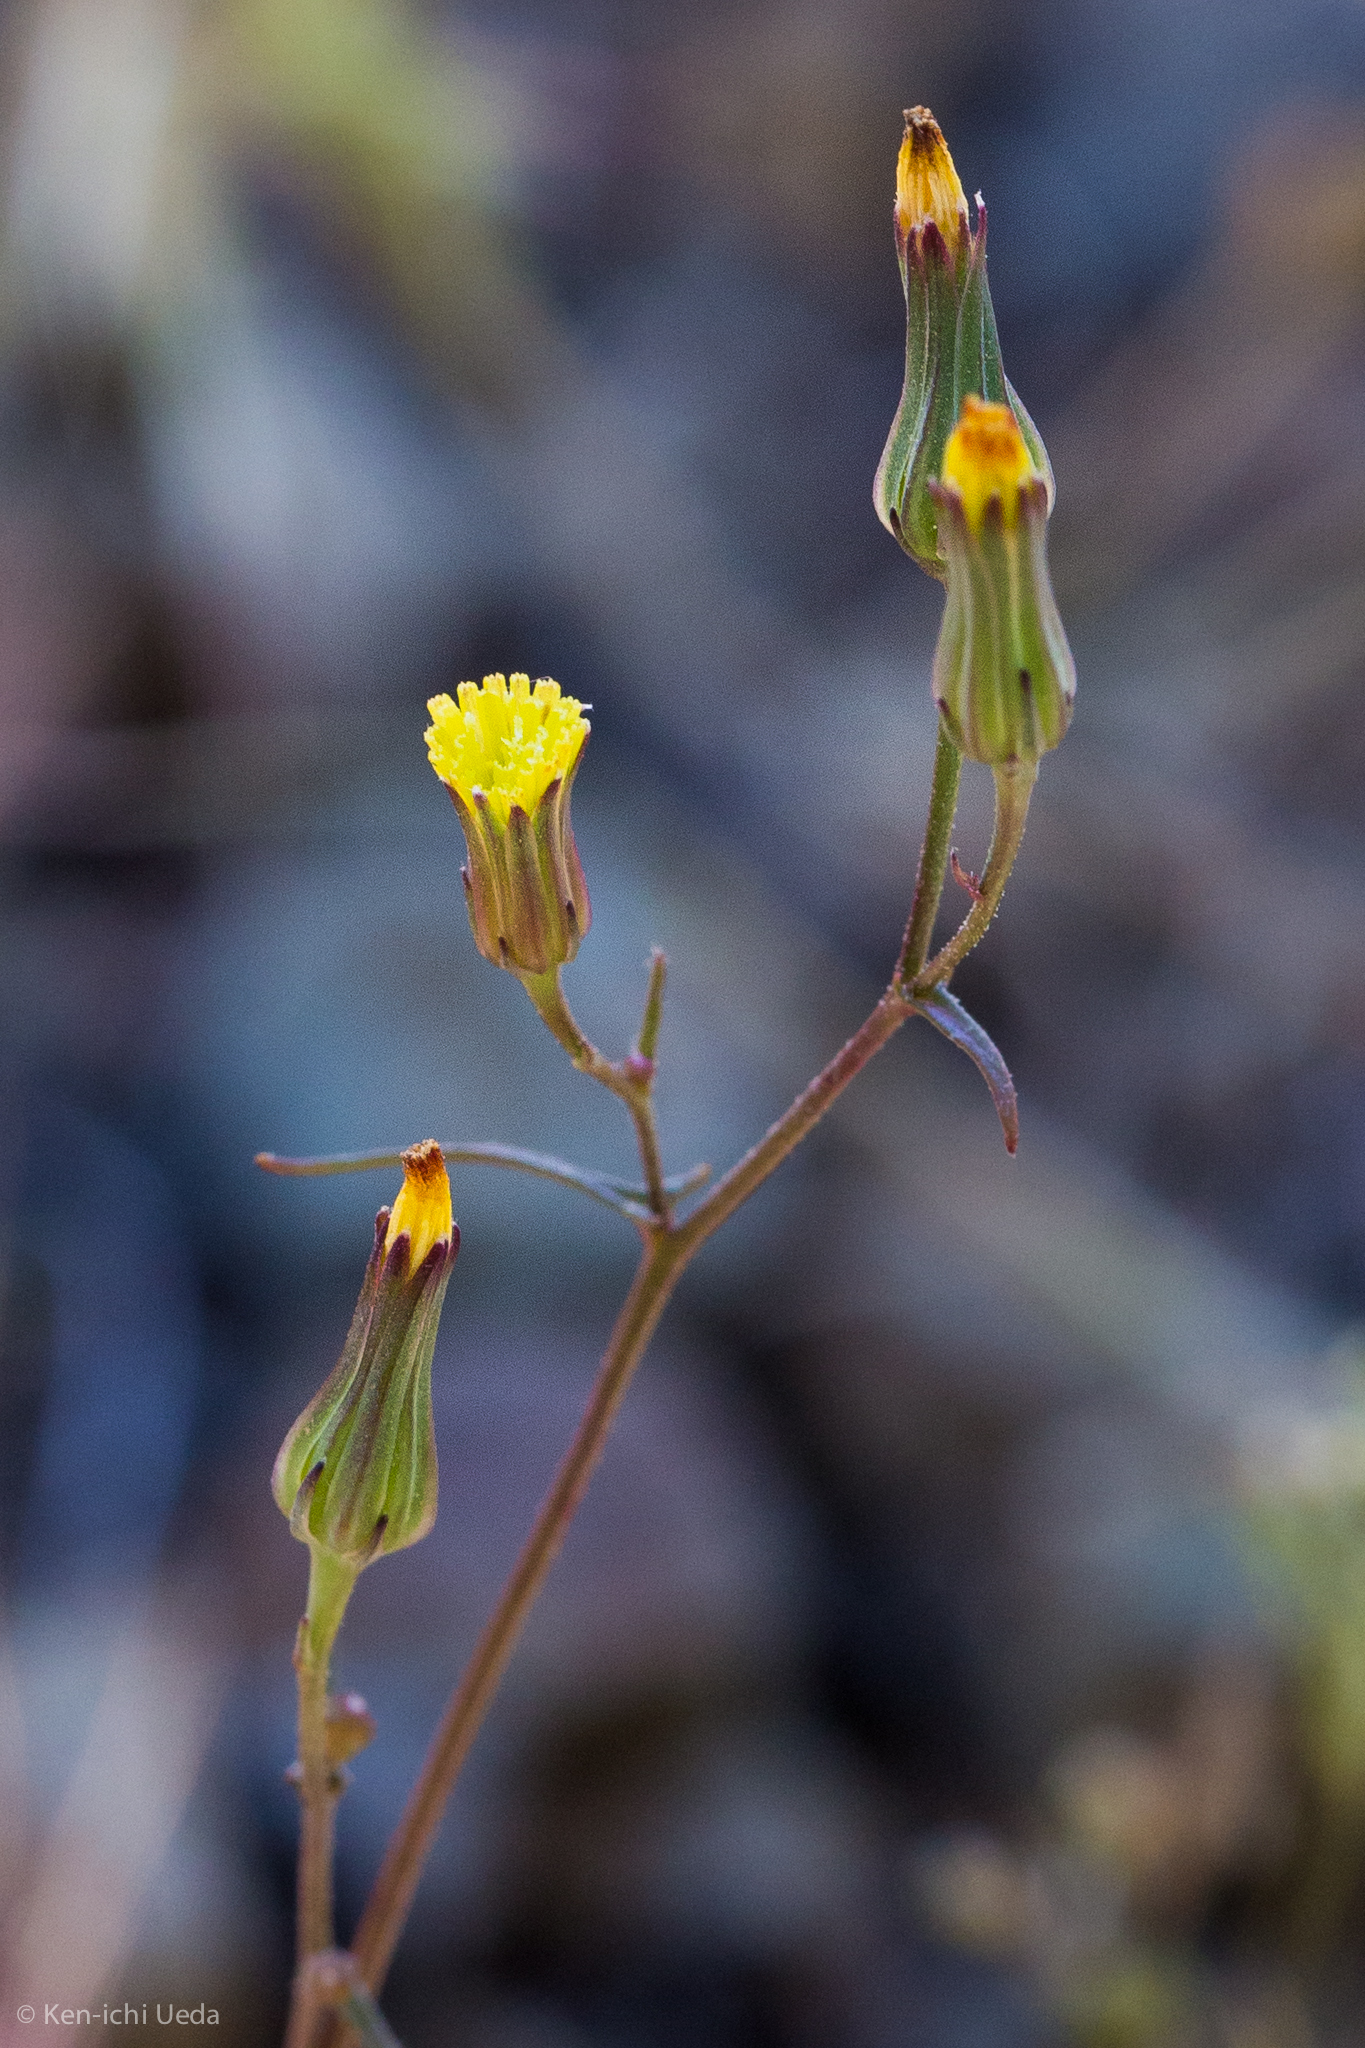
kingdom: Plantae
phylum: Tracheophyta
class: Magnoliopsida
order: Asterales
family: Asteraceae
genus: Malacothrix
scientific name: Malacothrix clevelandii
